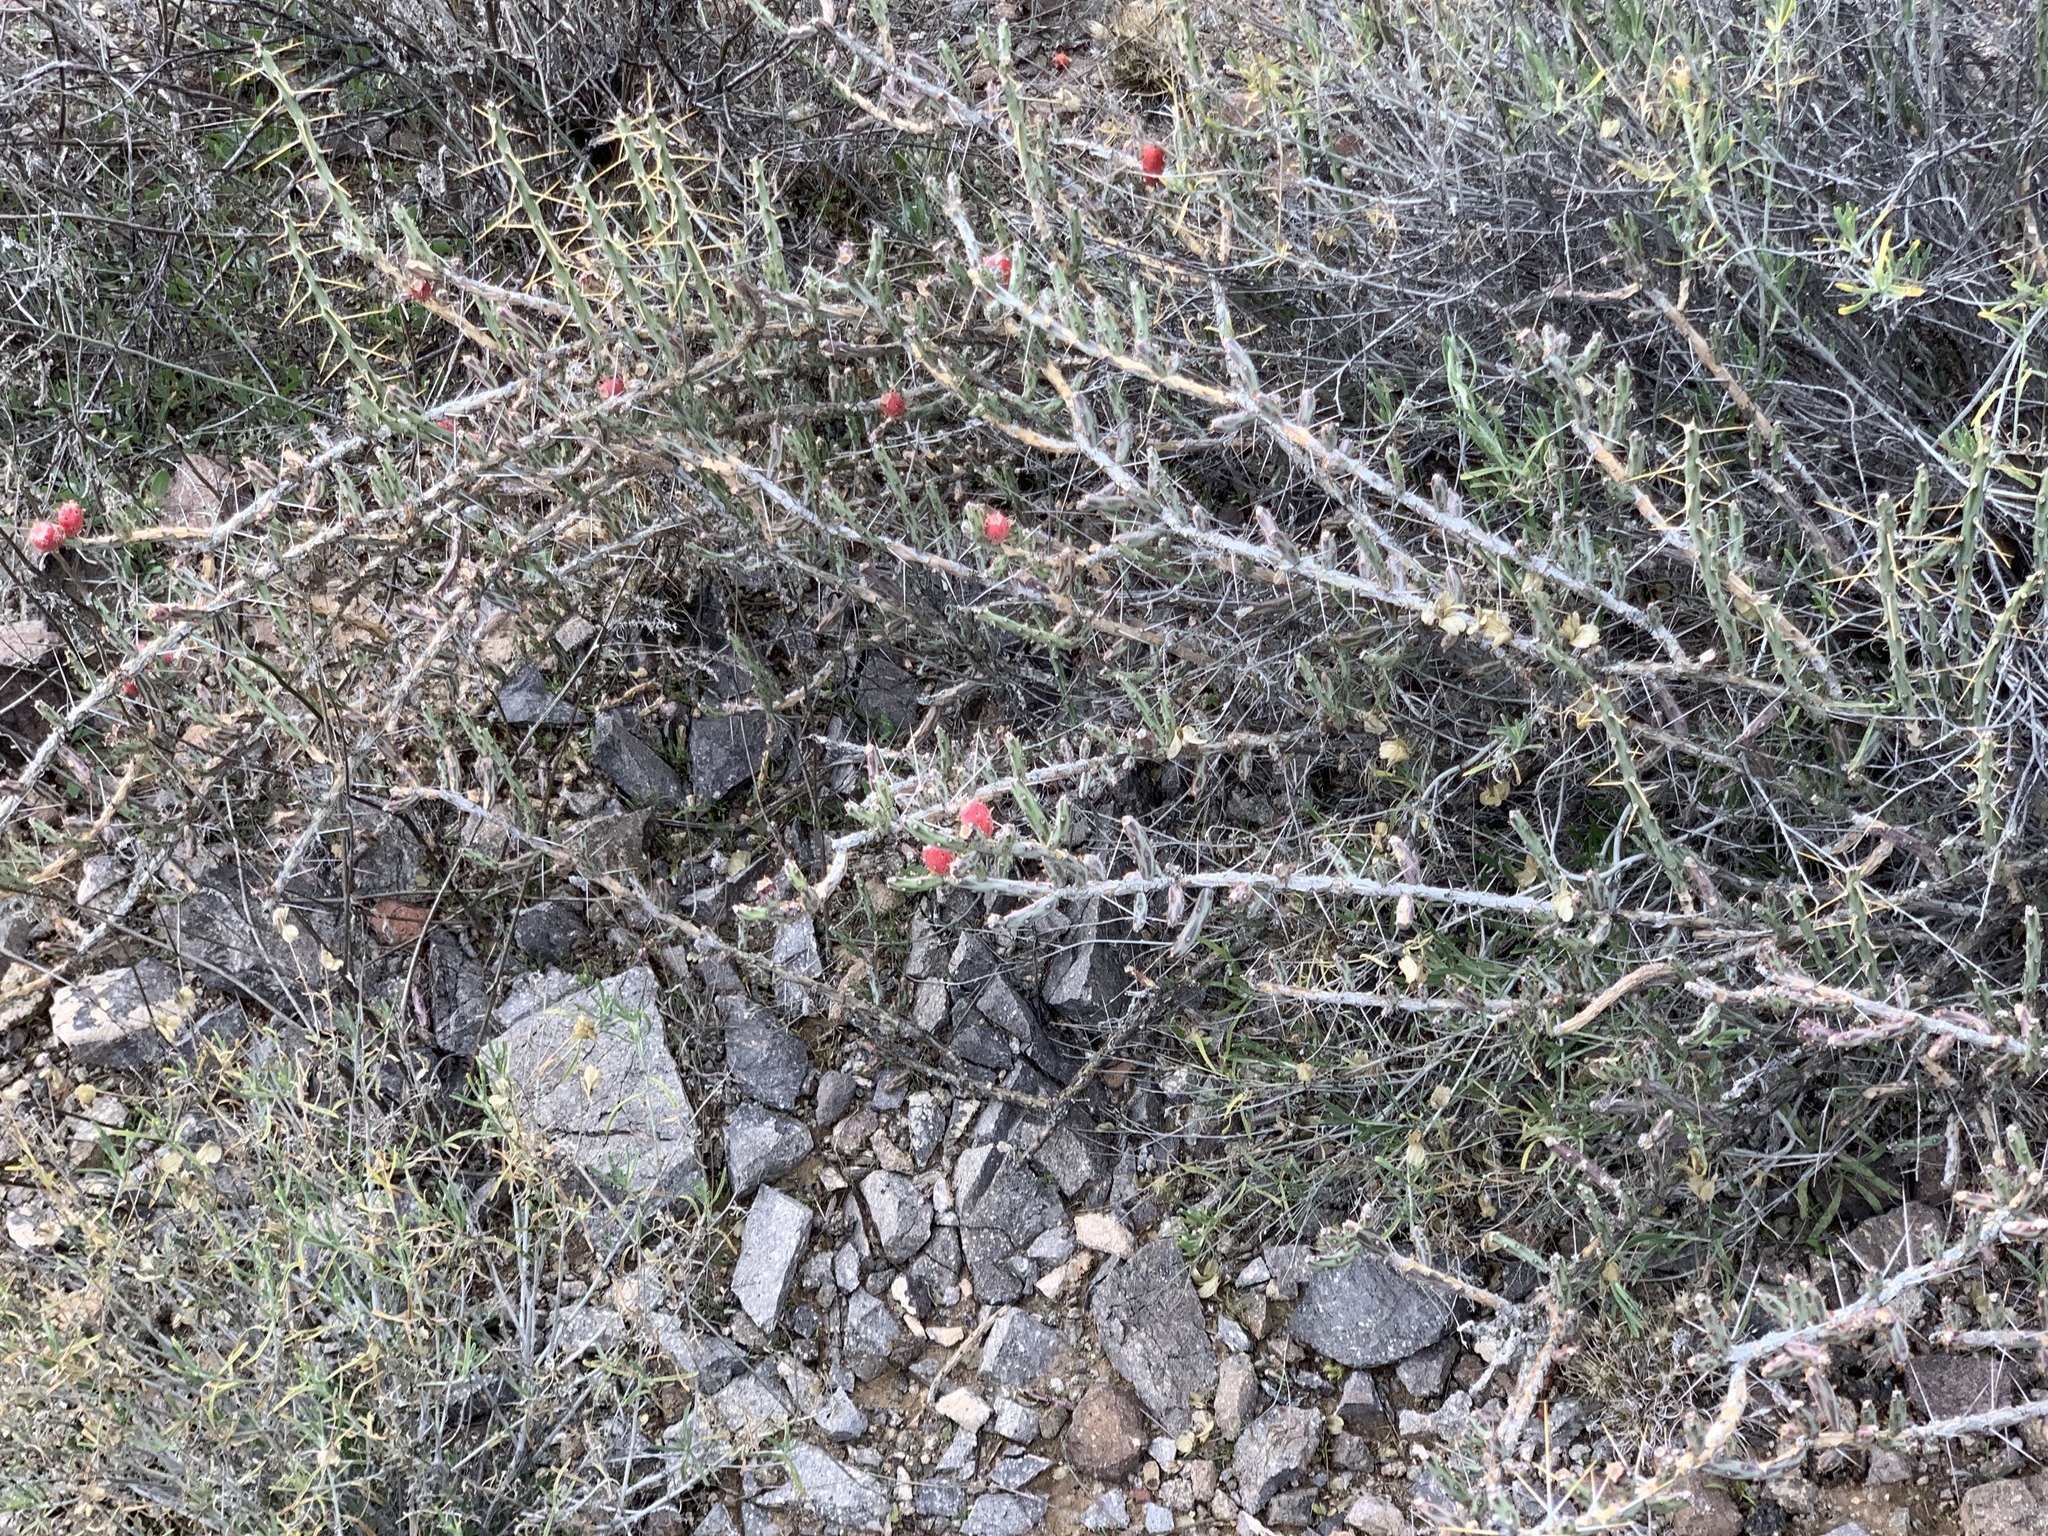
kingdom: Plantae
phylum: Tracheophyta
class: Magnoliopsida
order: Caryophyllales
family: Cactaceae
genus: Cylindropuntia
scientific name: Cylindropuntia leptocaulis
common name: Christmas cactus
